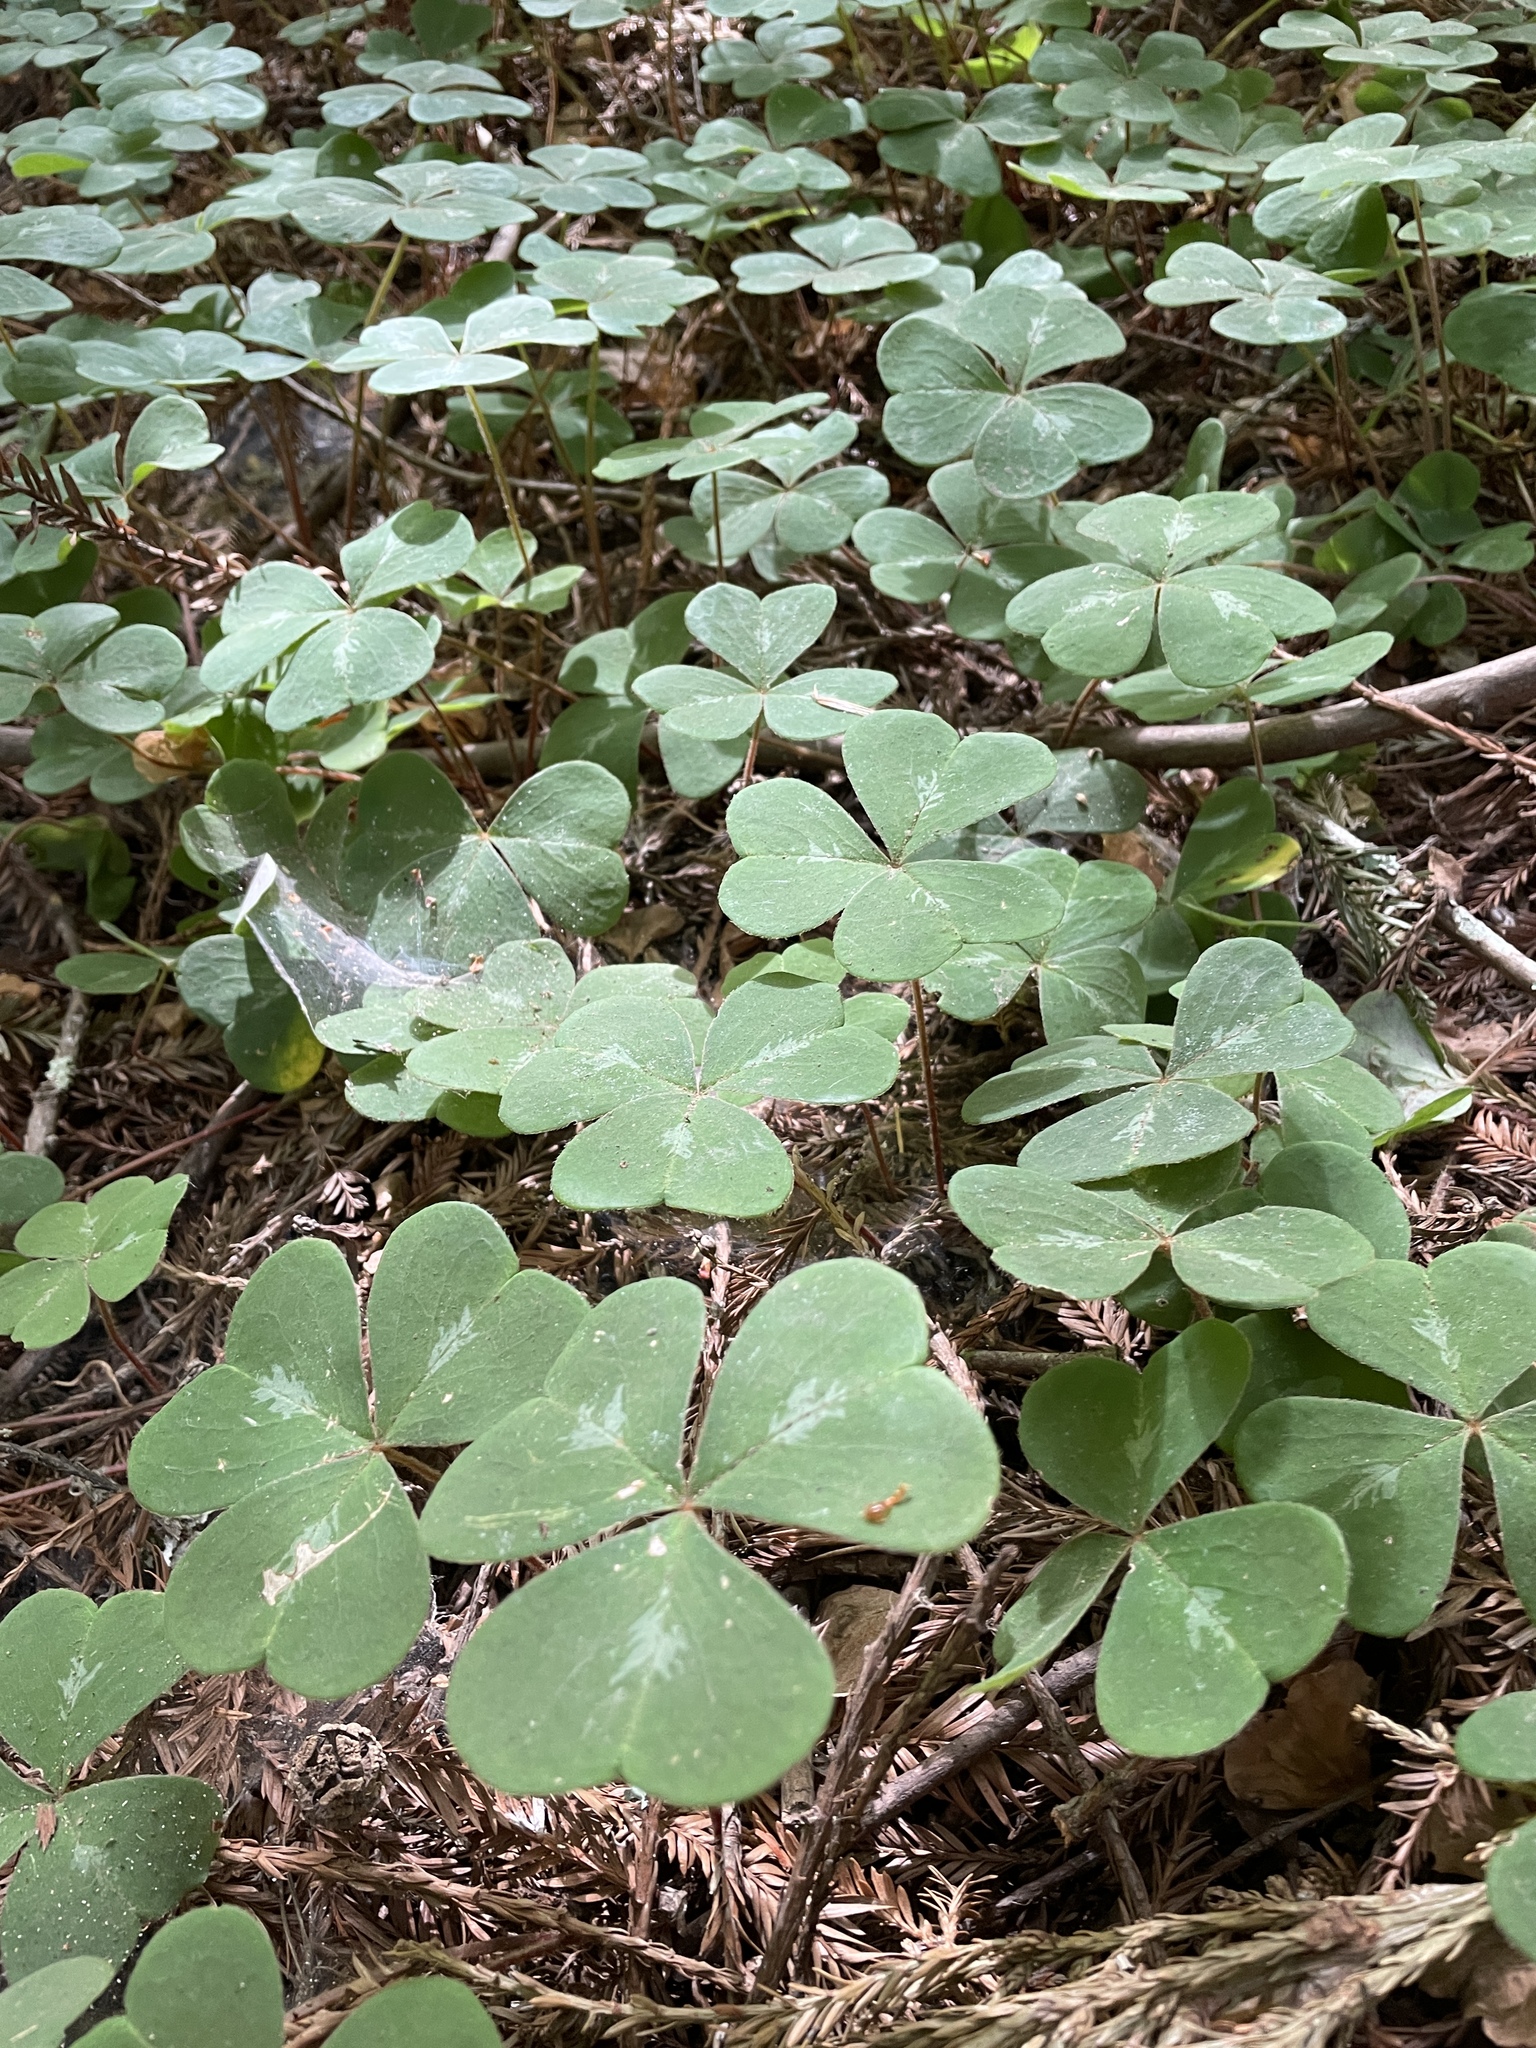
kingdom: Plantae
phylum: Tracheophyta
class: Magnoliopsida
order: Oxalidales
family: Oxalidaceae
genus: Oxalis
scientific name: Oxalis oregana
